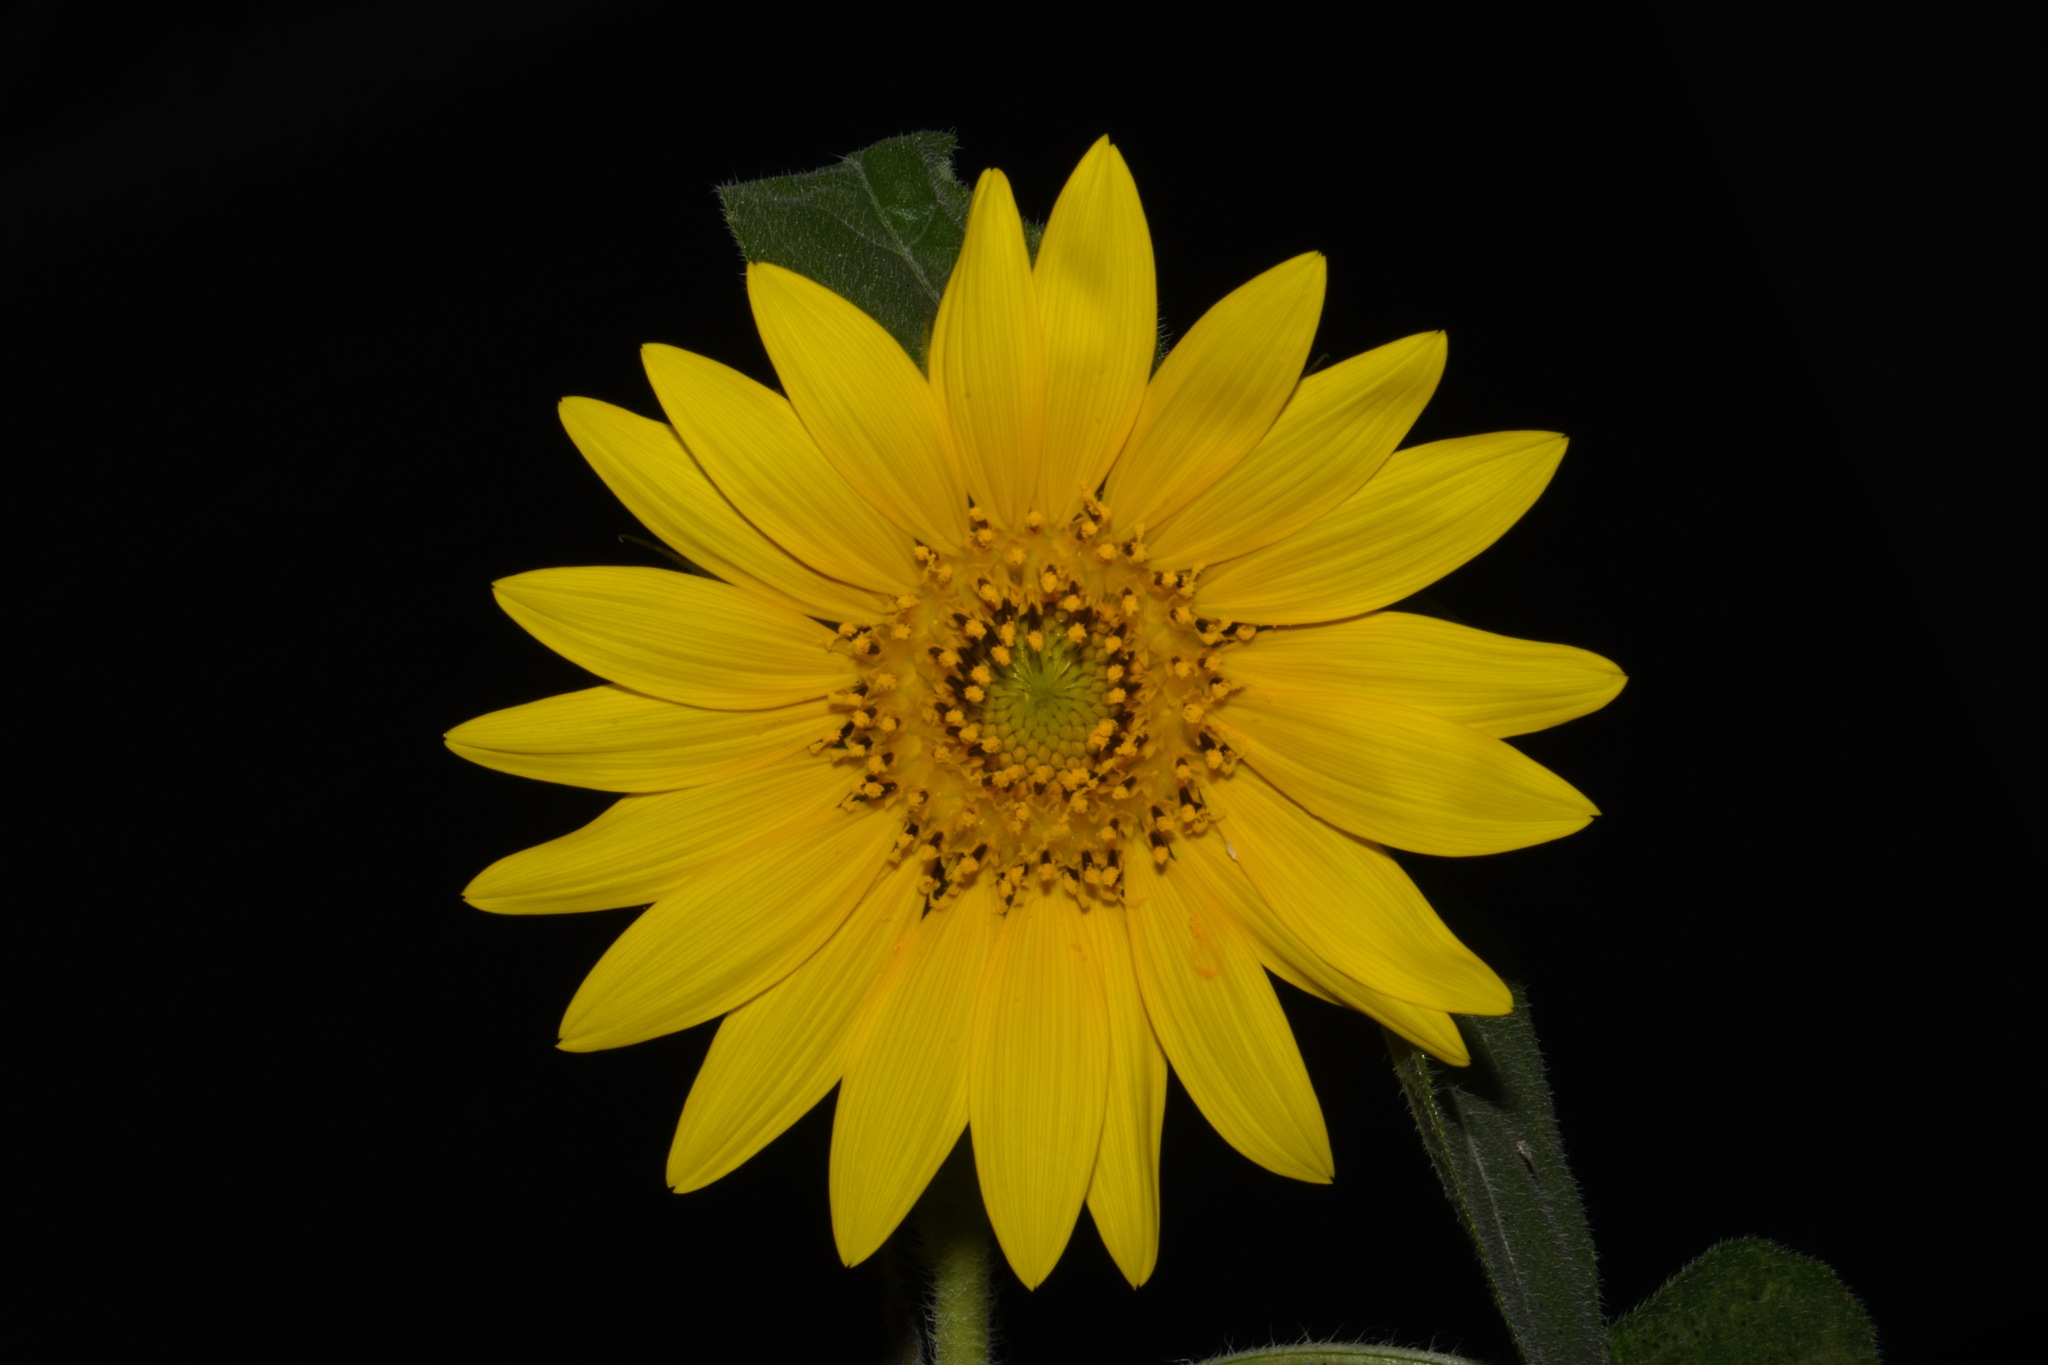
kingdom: Plantae
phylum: Tracheophyta
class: Magnoliopsida
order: Asterales
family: Asteraceae
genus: Helianthus
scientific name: Helianthus annuus
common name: Sunflower
